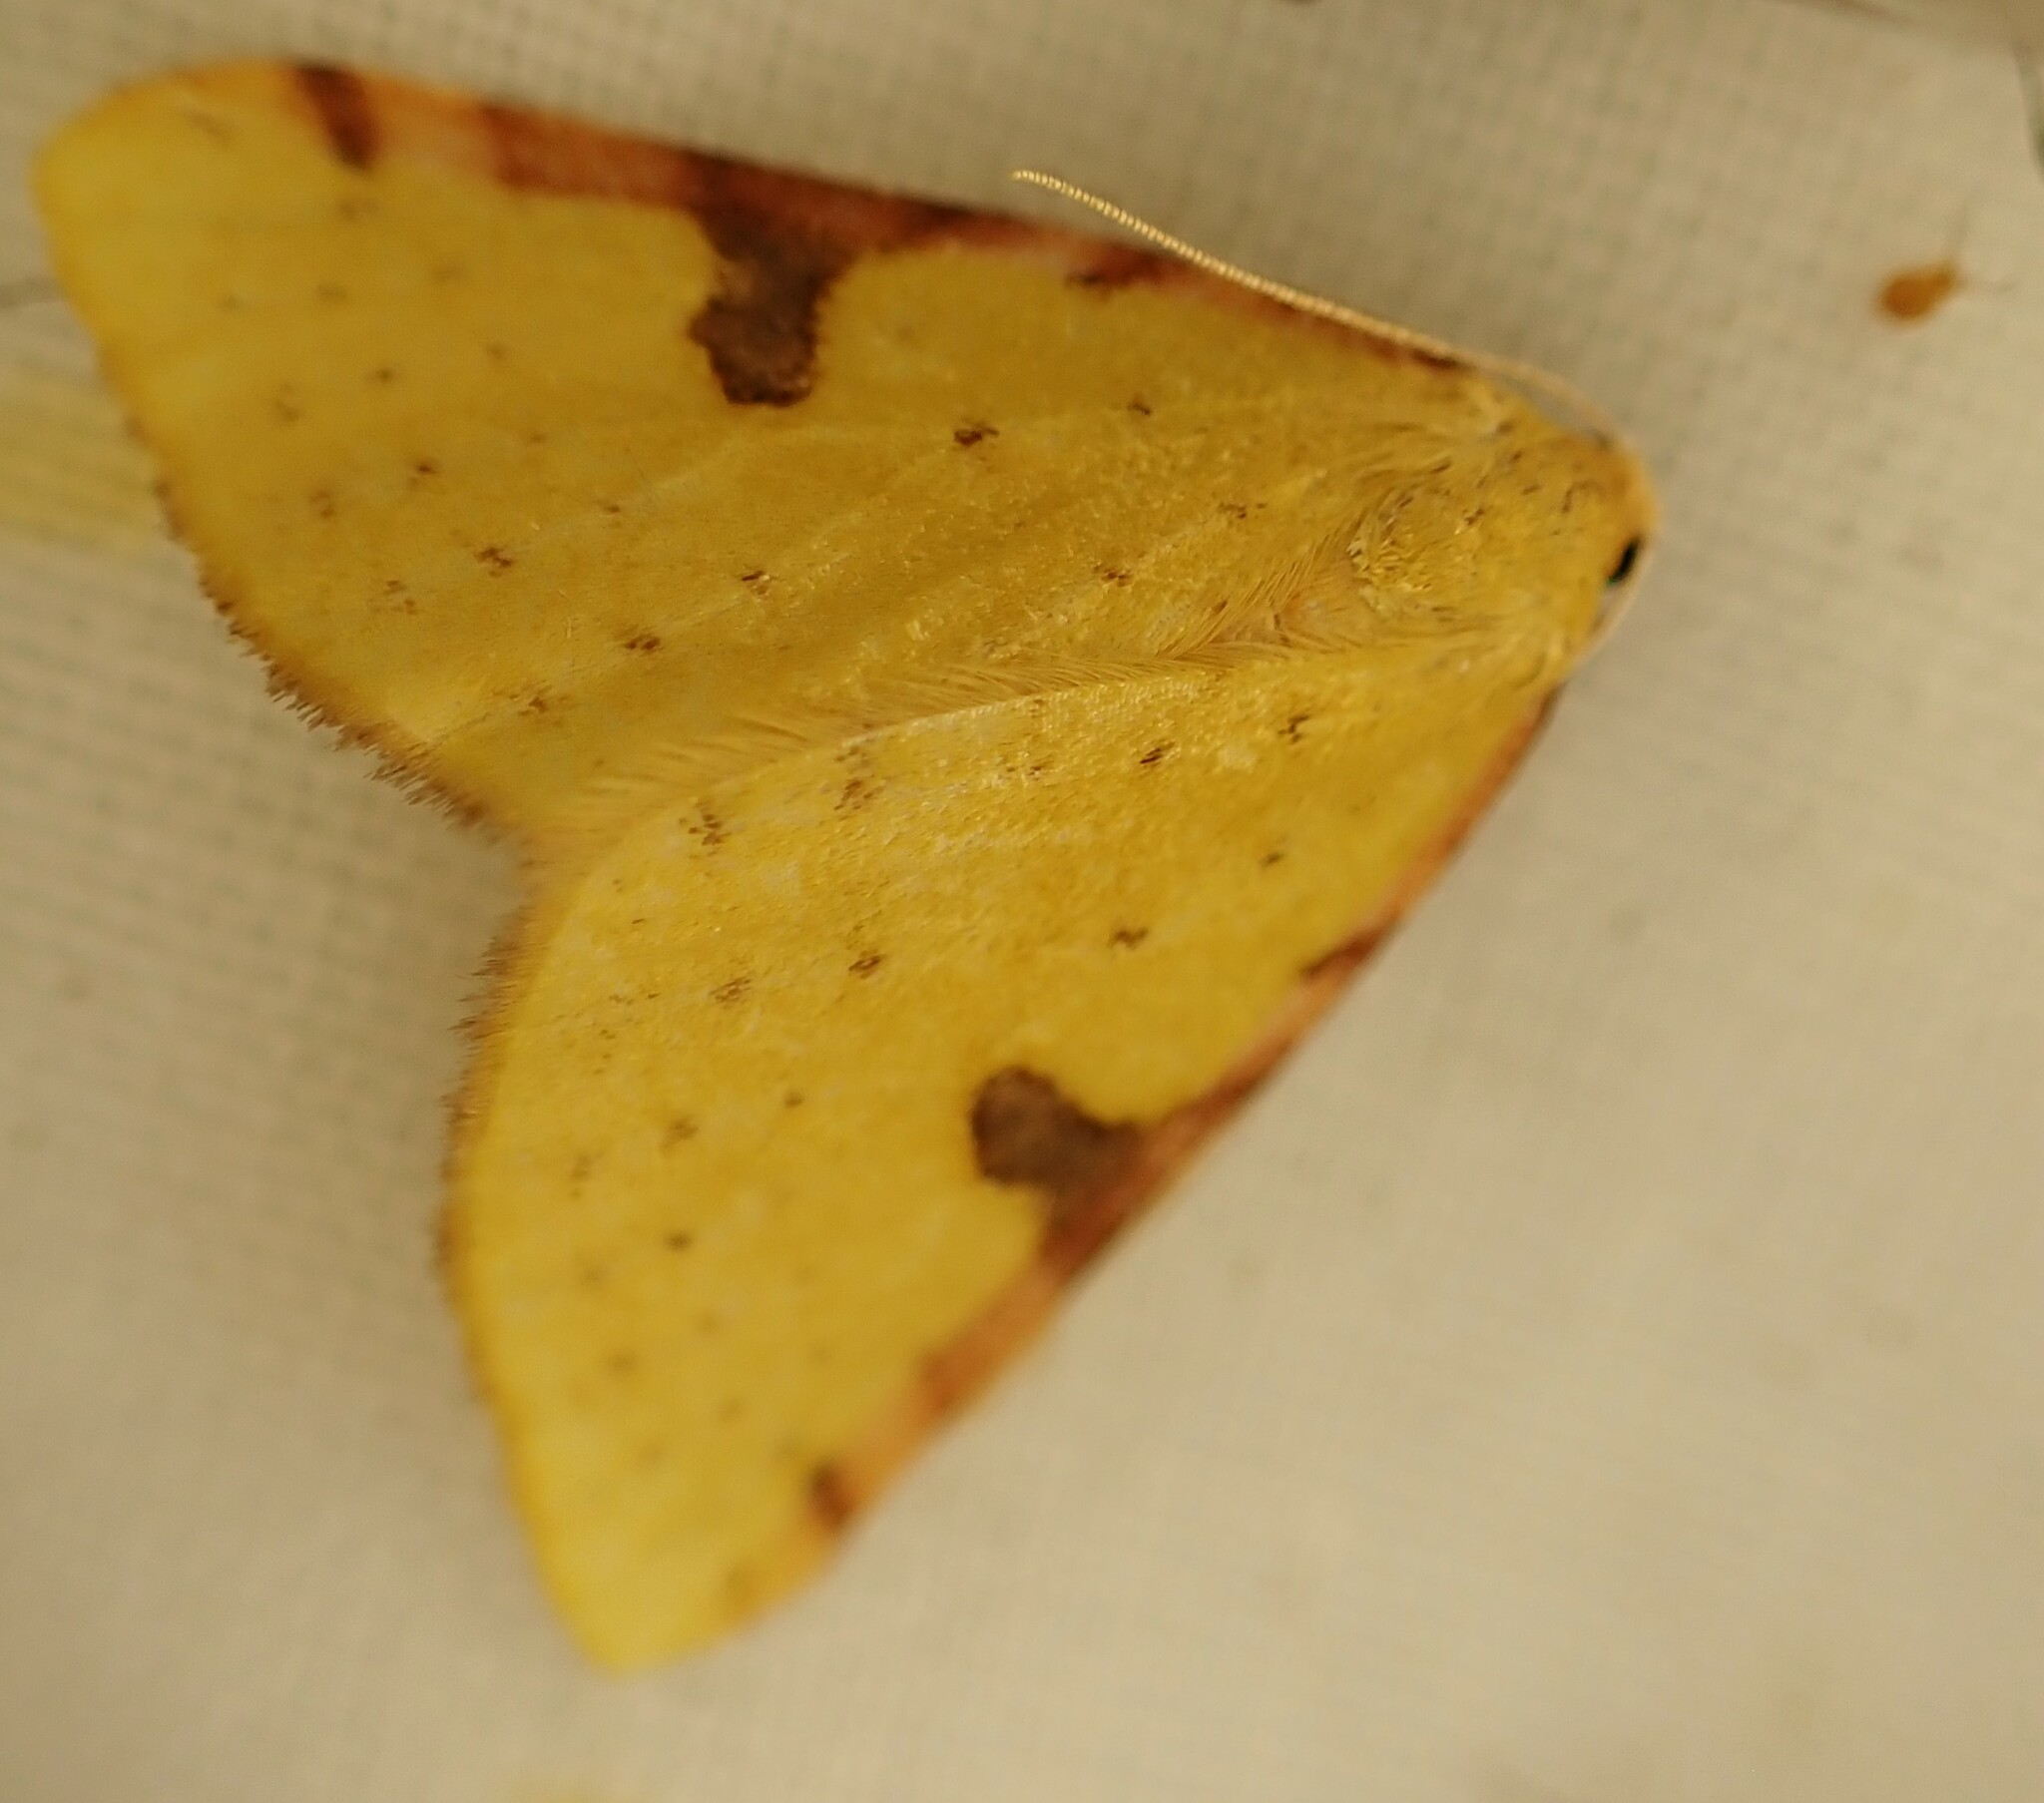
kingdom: Animalia
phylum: Arthropoda
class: Insecta
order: Lepidoptera
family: Geometridae
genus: Epiphryne
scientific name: Epiphryne xanthaspis
